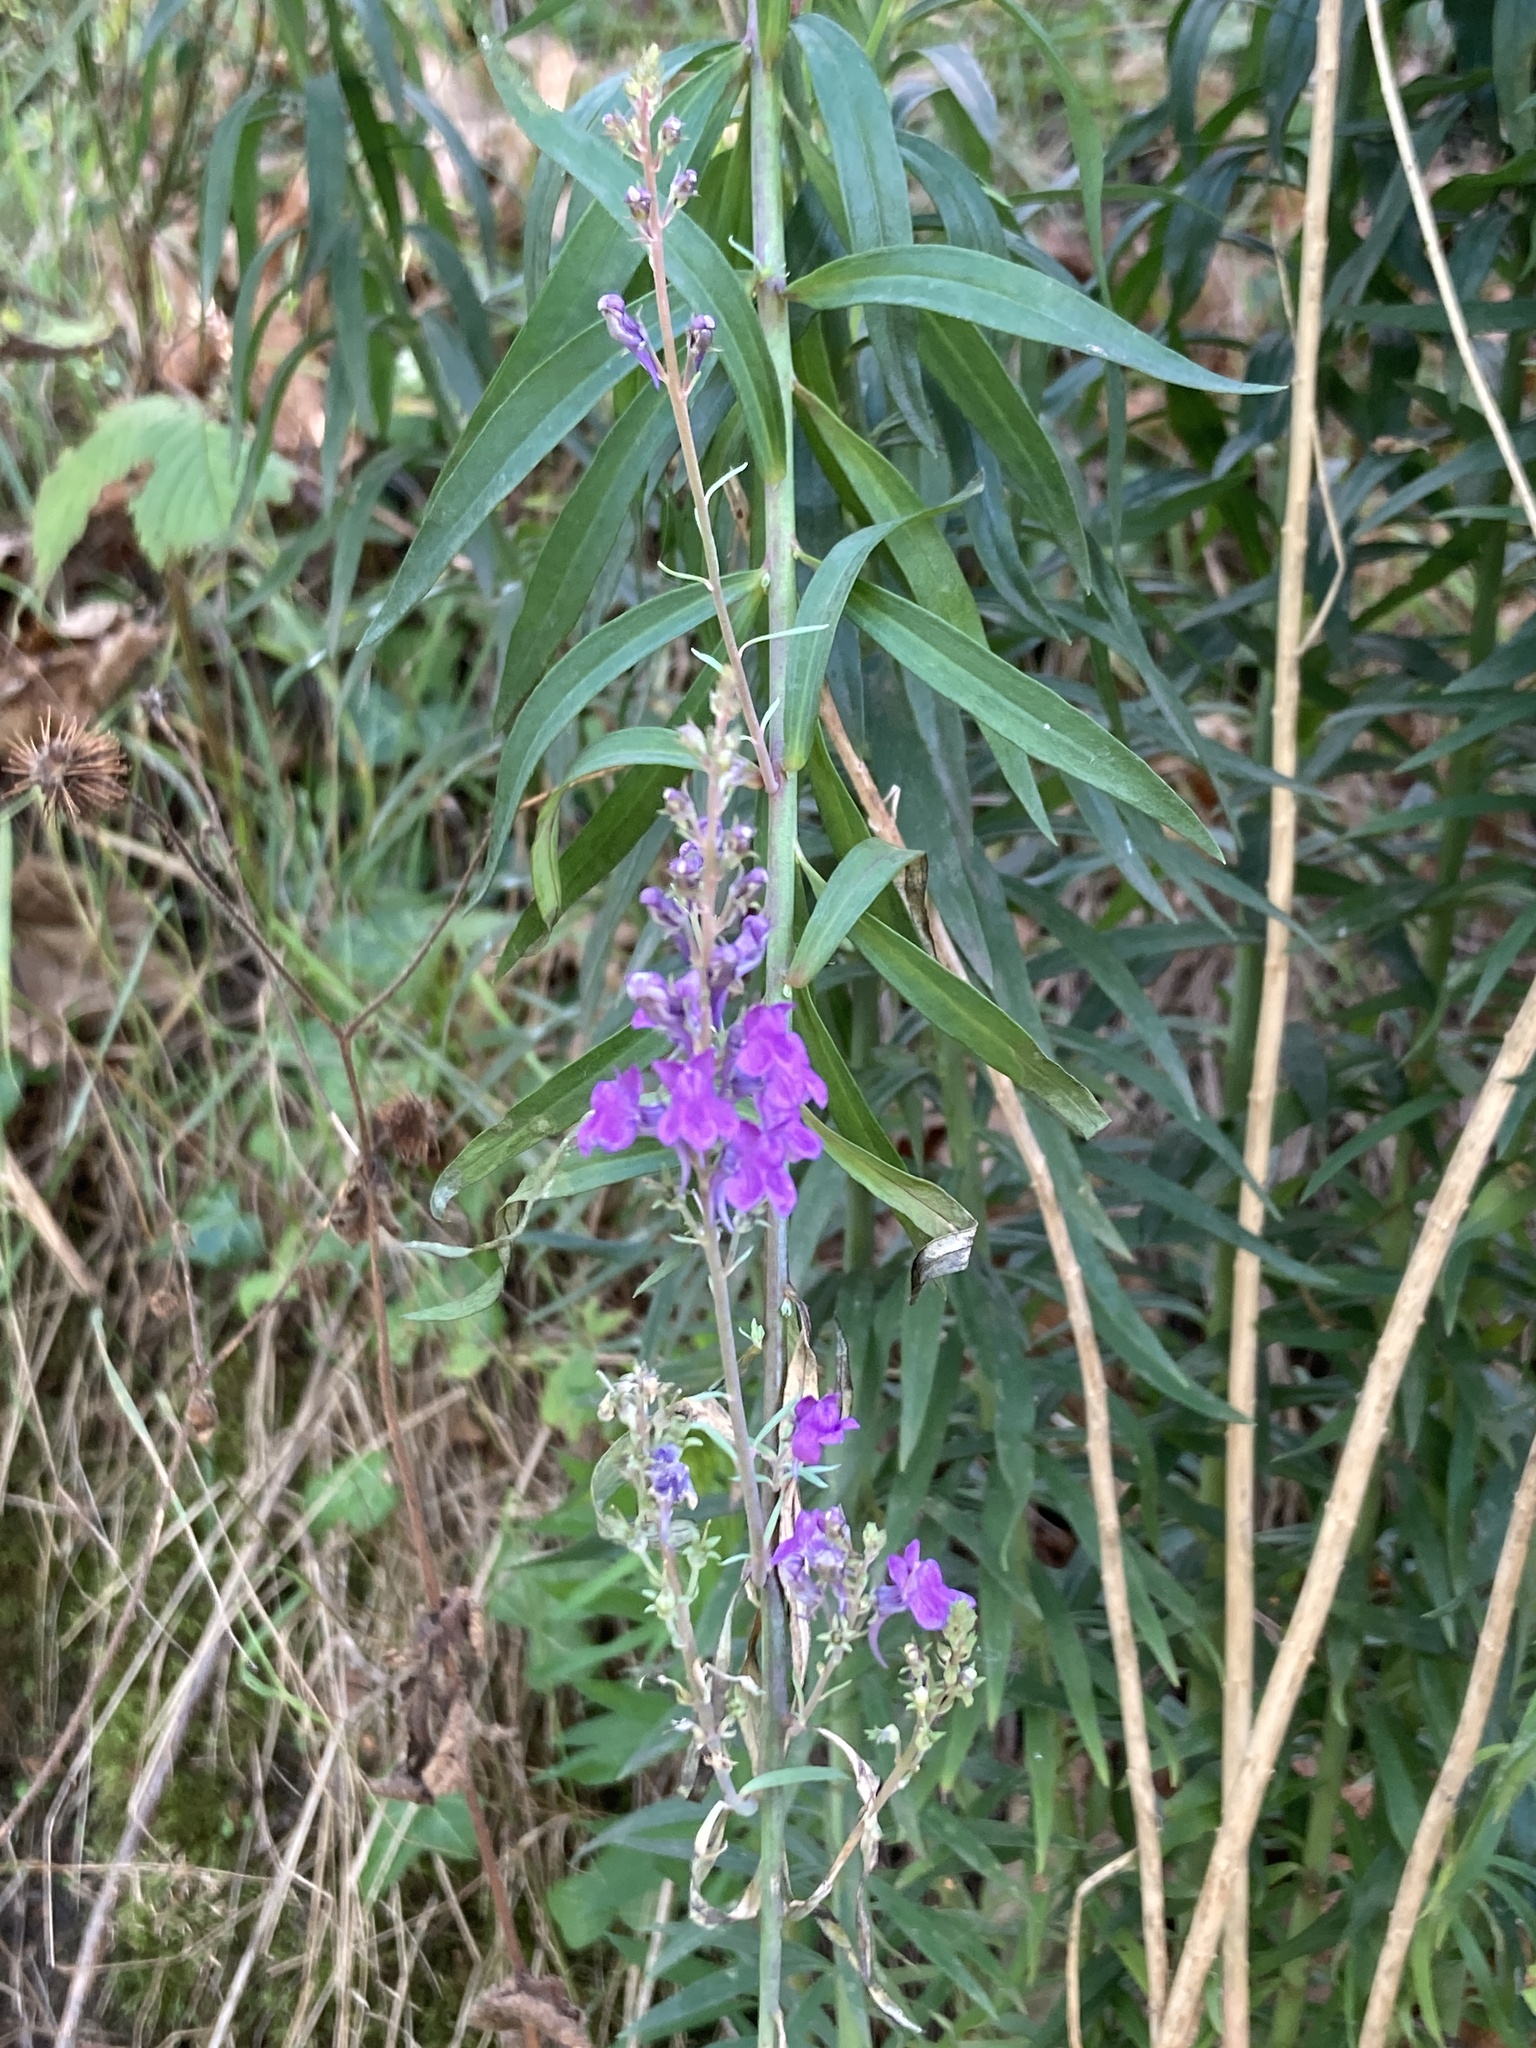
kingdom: Plantae
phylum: Tracheophyta
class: Magnoliopsida
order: Lamiales
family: Plantaginaceae
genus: Linaria
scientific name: Linaria purpurea
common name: Purple toadflax
